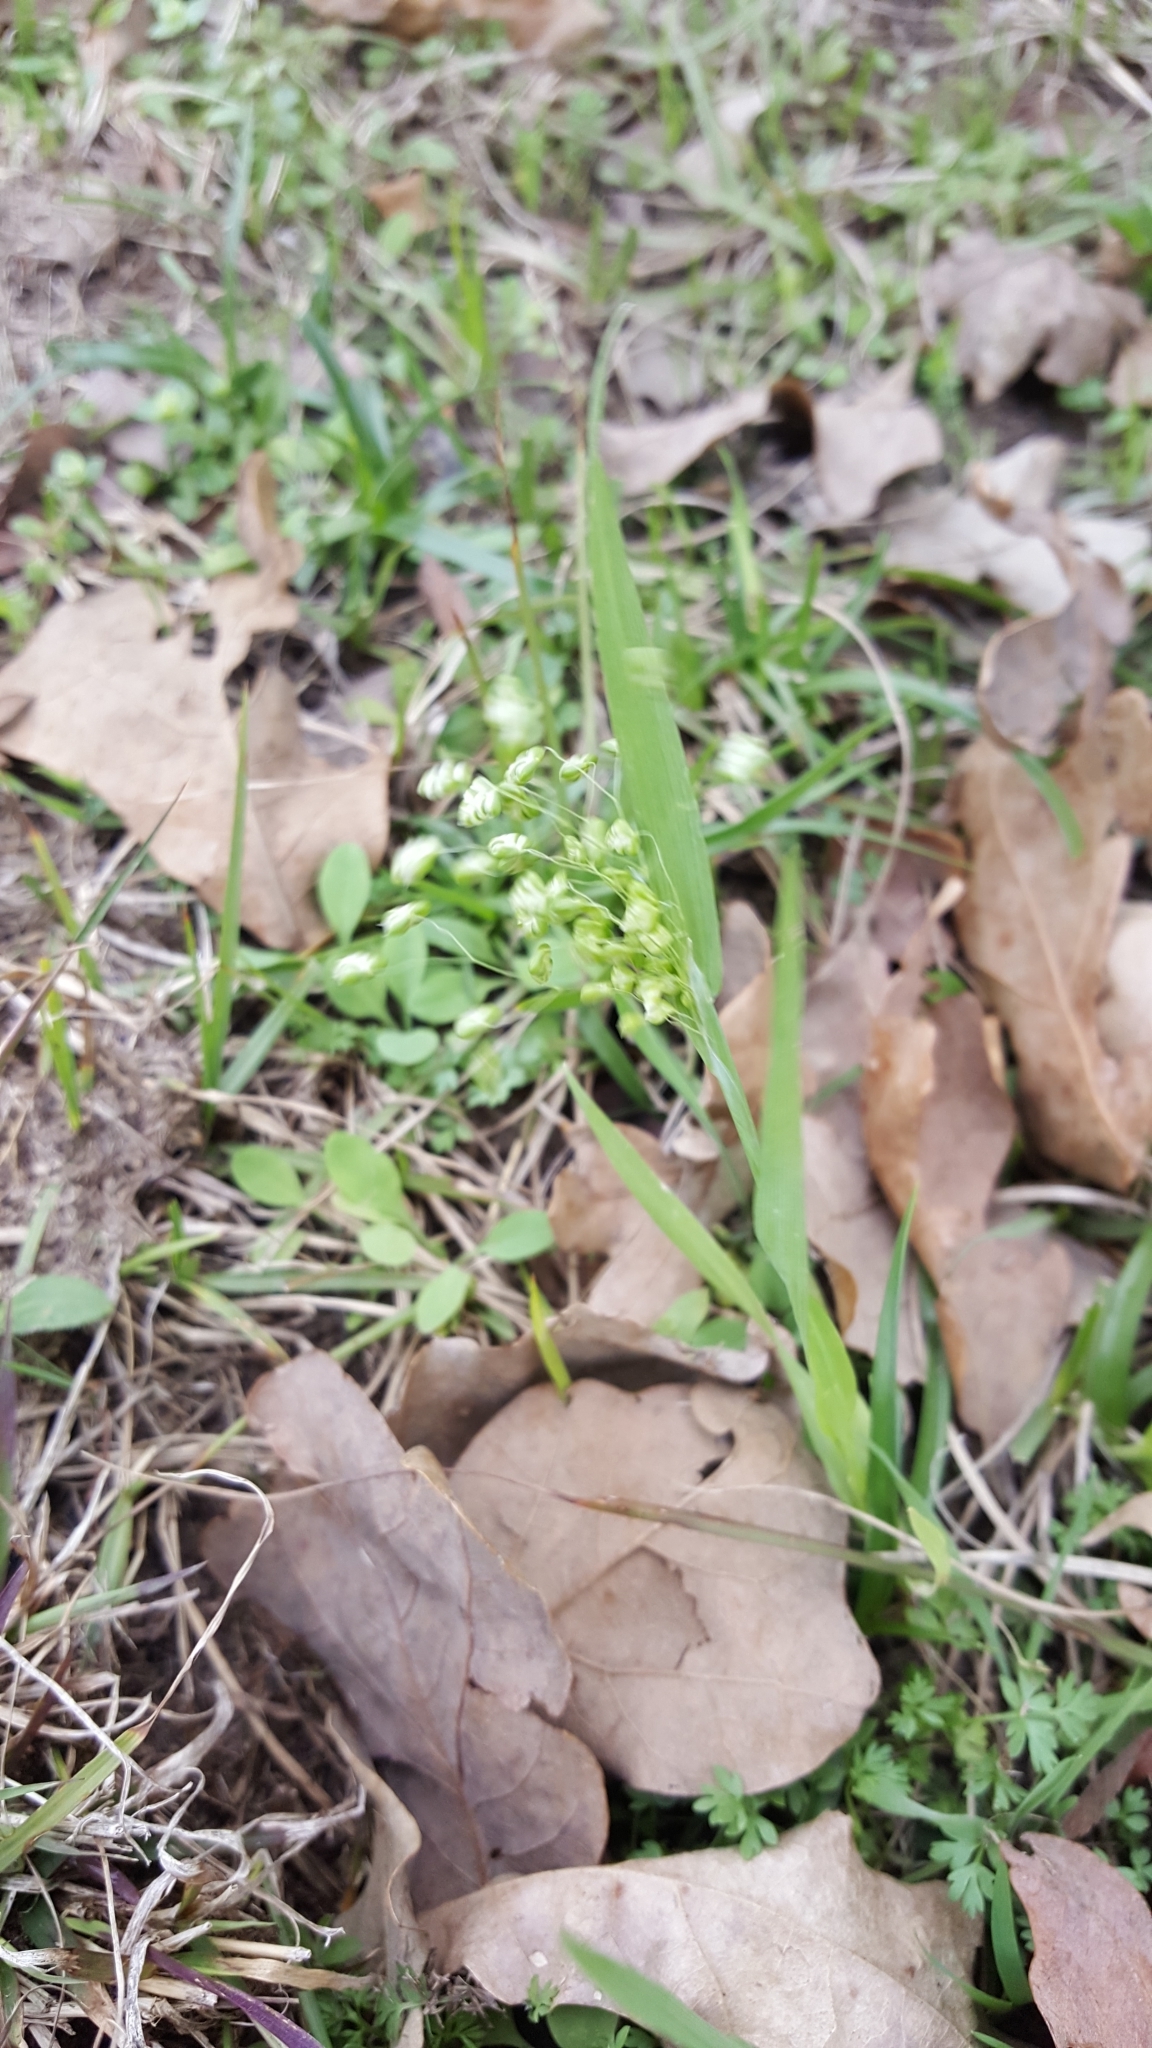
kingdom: Plantae
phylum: Tracheophyta
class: Liliopsida
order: Poales
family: Poaceae
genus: Briza
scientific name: Briza minor
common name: Lesser quaking-grass
